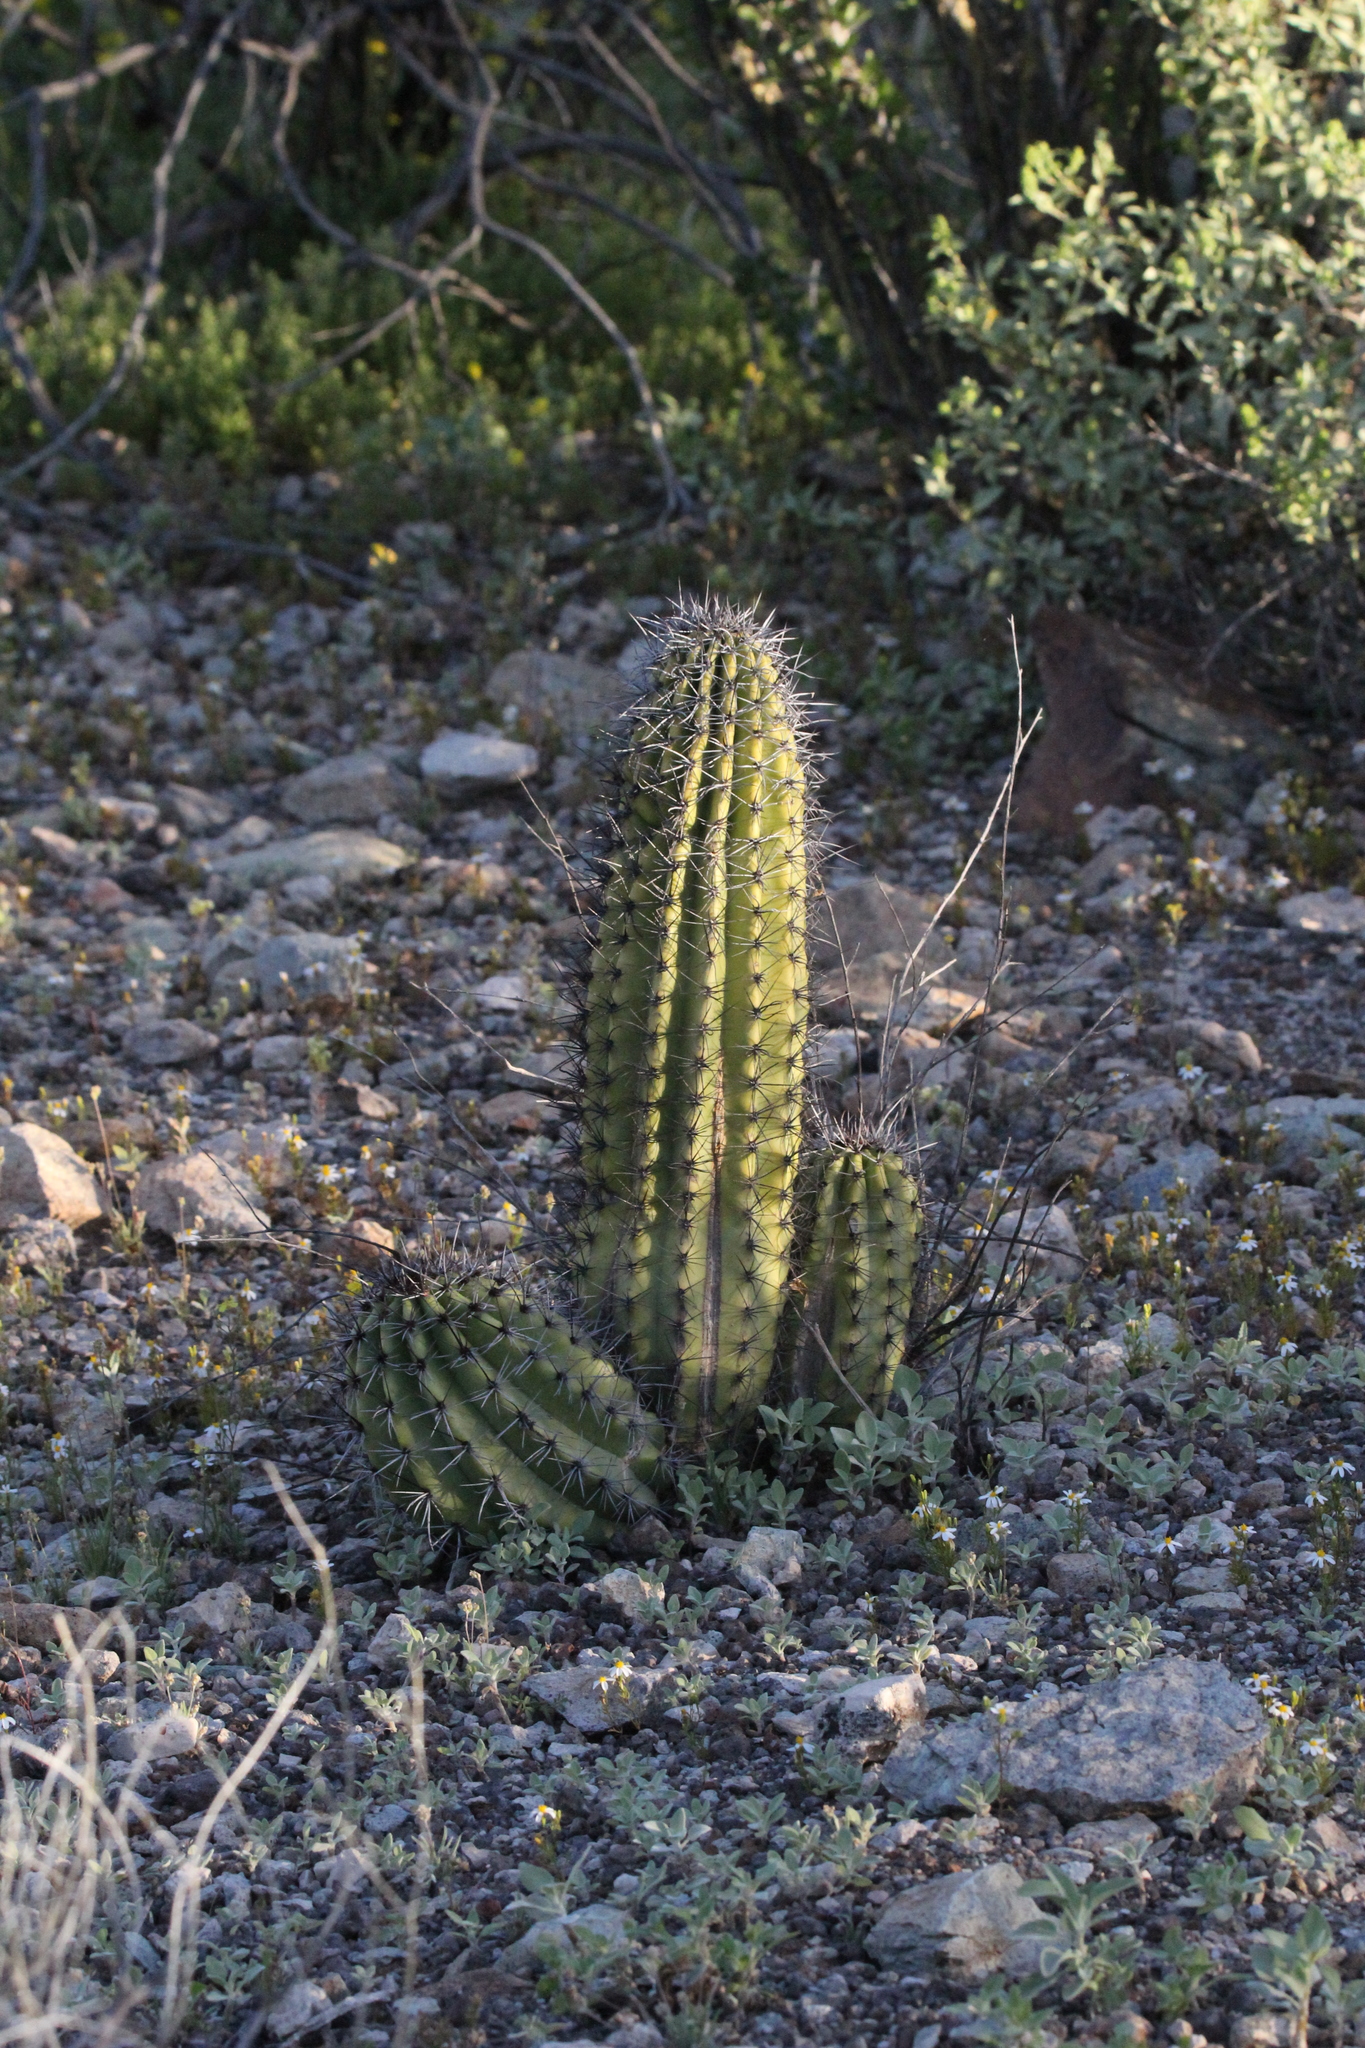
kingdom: Plantae
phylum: Tracheophyta
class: Magnoliopsida
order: Caryophyllales
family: Cactaceae
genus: Stenocereus
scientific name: Stenocereus thurberi
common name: Organ pipe cactus
